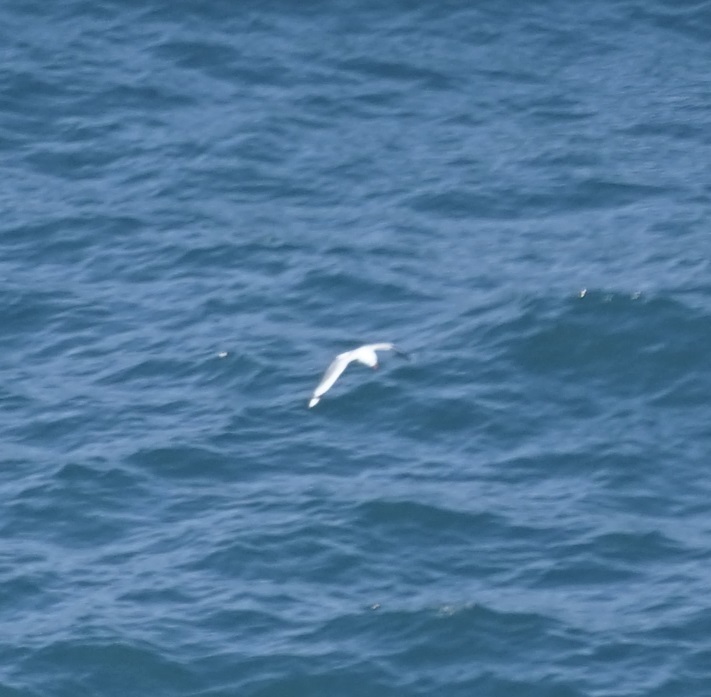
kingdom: Animalia
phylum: Chordata
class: Aves
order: Charadriiformes
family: Laridae
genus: Chroicocephalus
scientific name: Chroicocephalus novaehollandiae
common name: Silver gull
